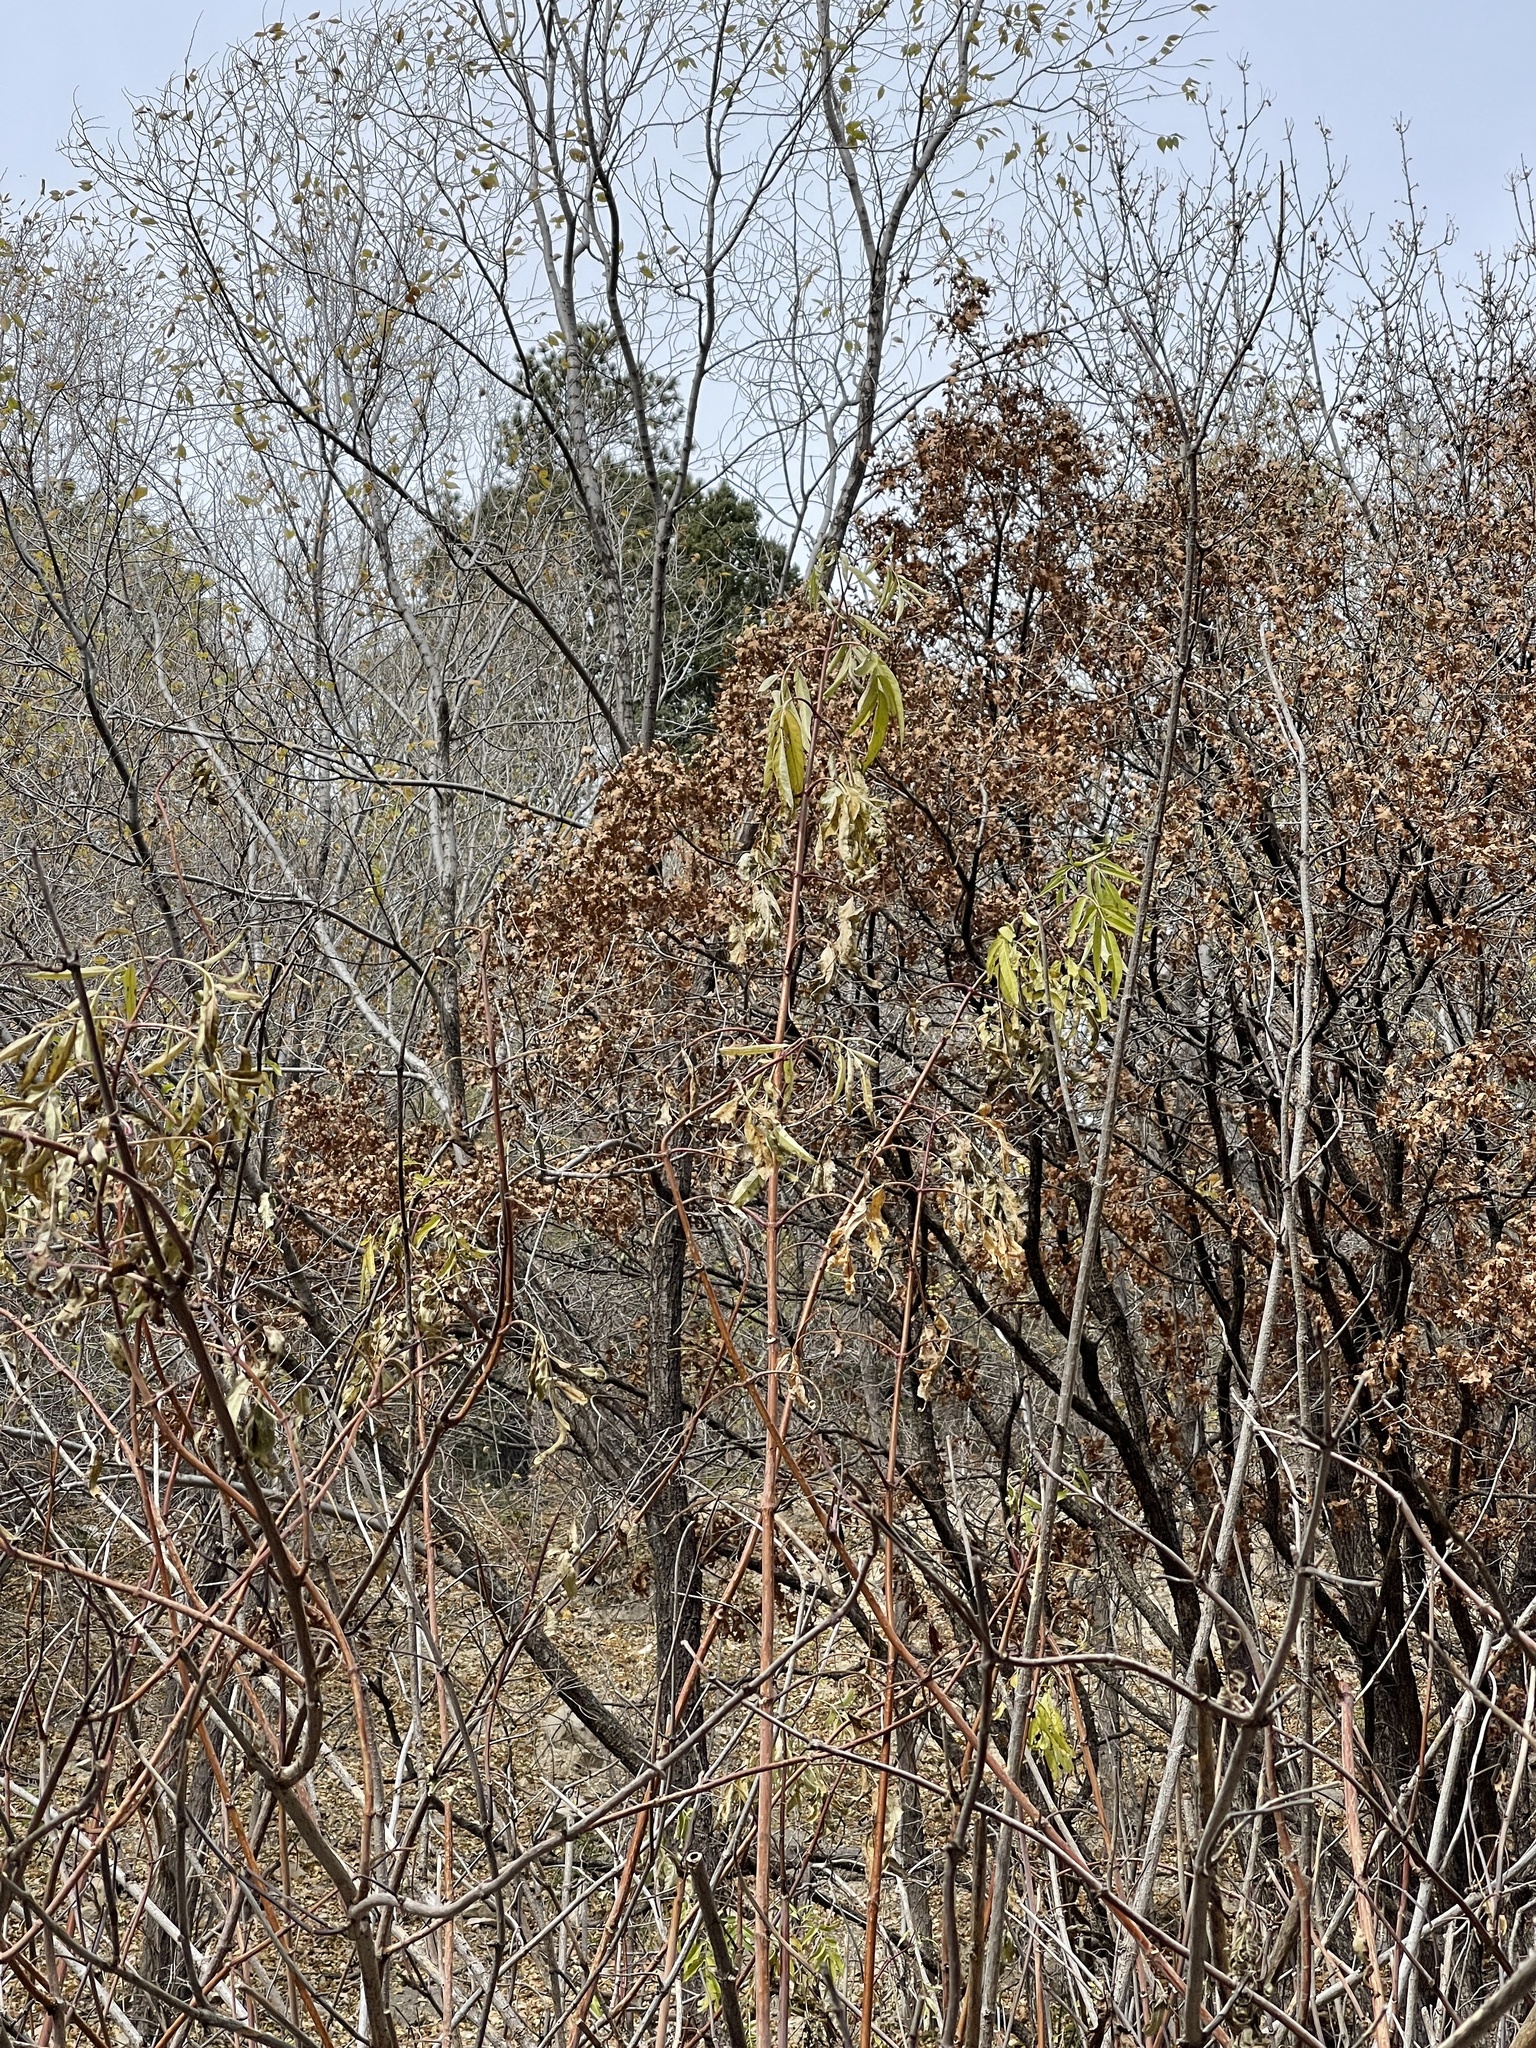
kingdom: Plantae
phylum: Tracheophyta
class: Magnoliopsida
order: Dipsacales
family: Viburnaceae
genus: Sambucus
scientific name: Sambucus cerulea
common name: Blue elder
